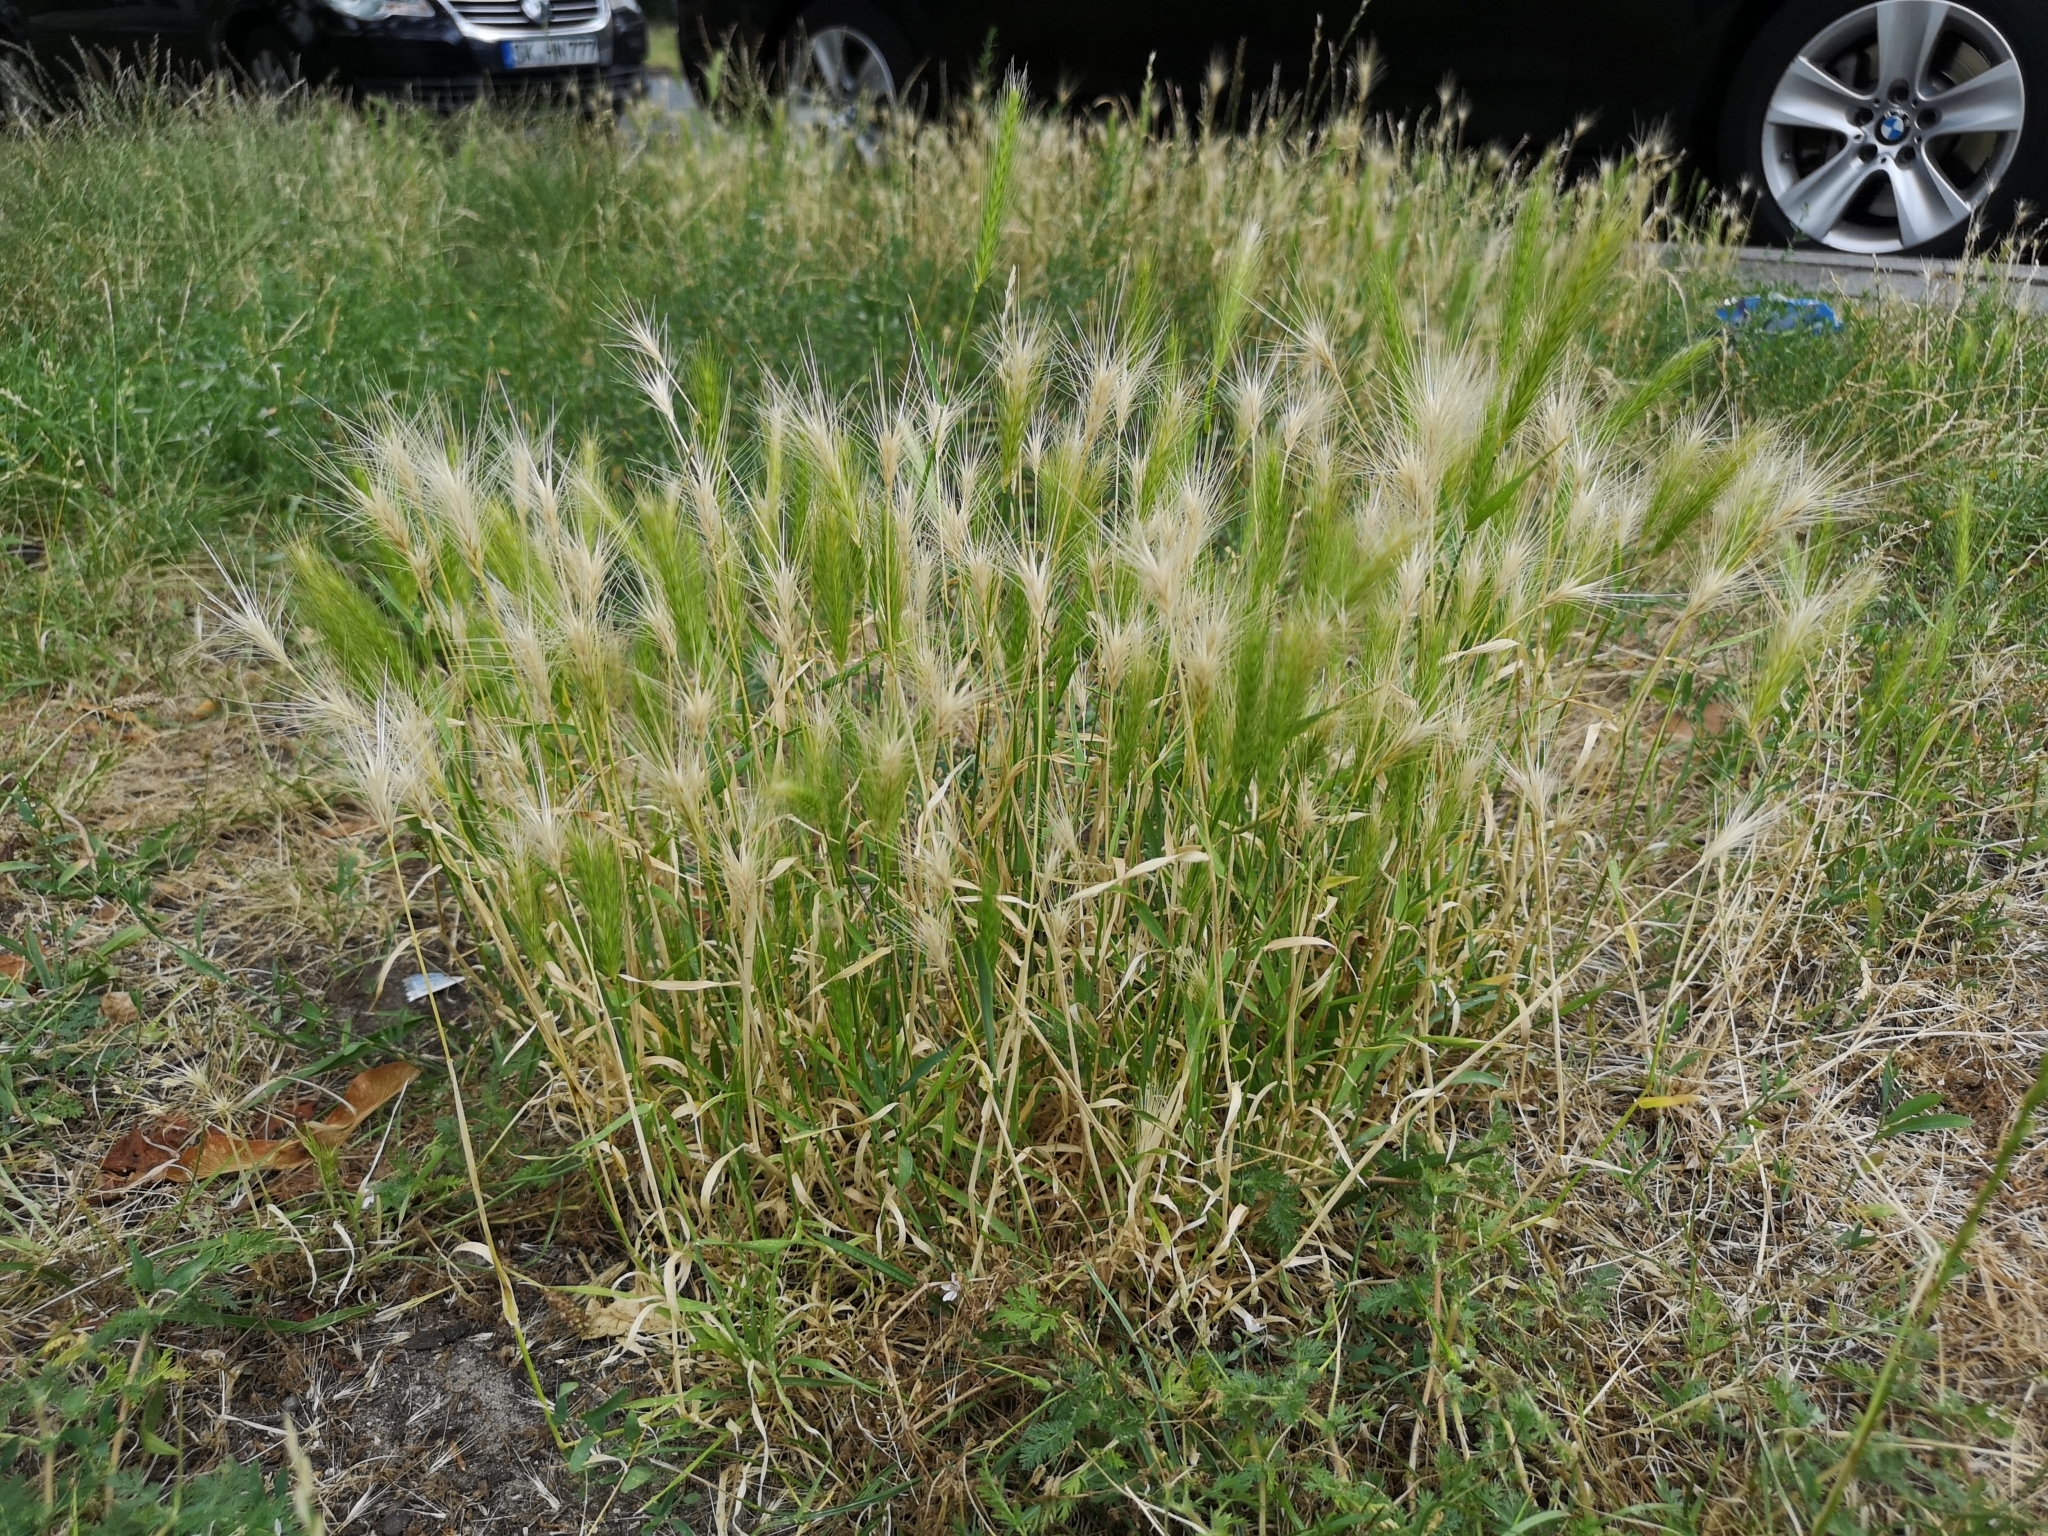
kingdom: Plantae
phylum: Tracheophyta
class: Liliopsida
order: Poales
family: Poaceae
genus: Hordeum
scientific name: Hordeum murinum
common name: Wall barley
